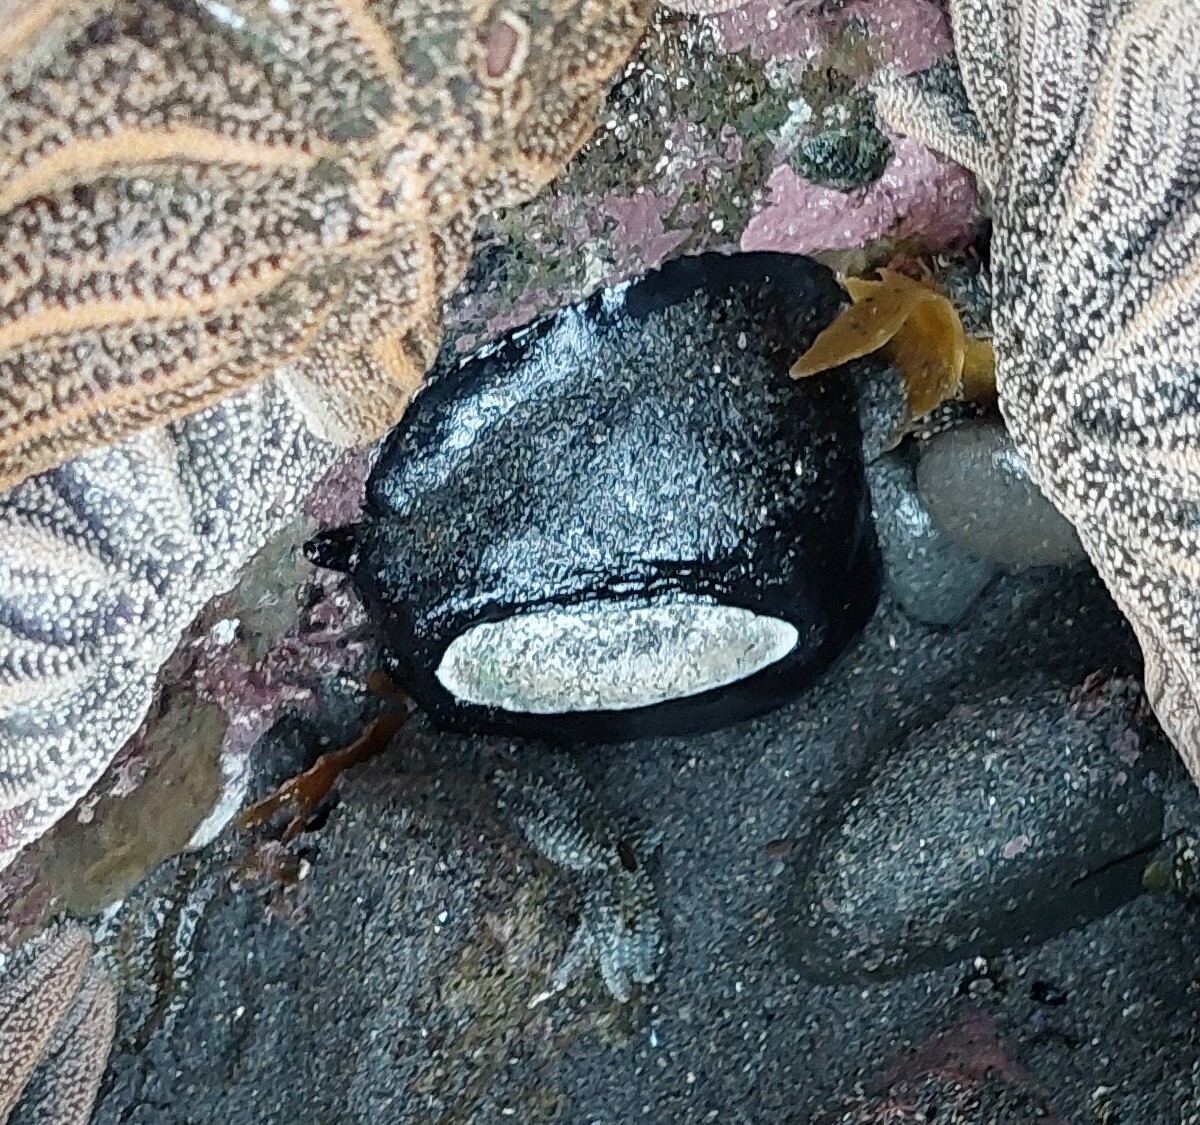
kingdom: Animalia
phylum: Mollusca
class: Gastropoda
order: Lepetellida
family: Fissurellidae
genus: Scutus
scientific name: Scutus breviculus
